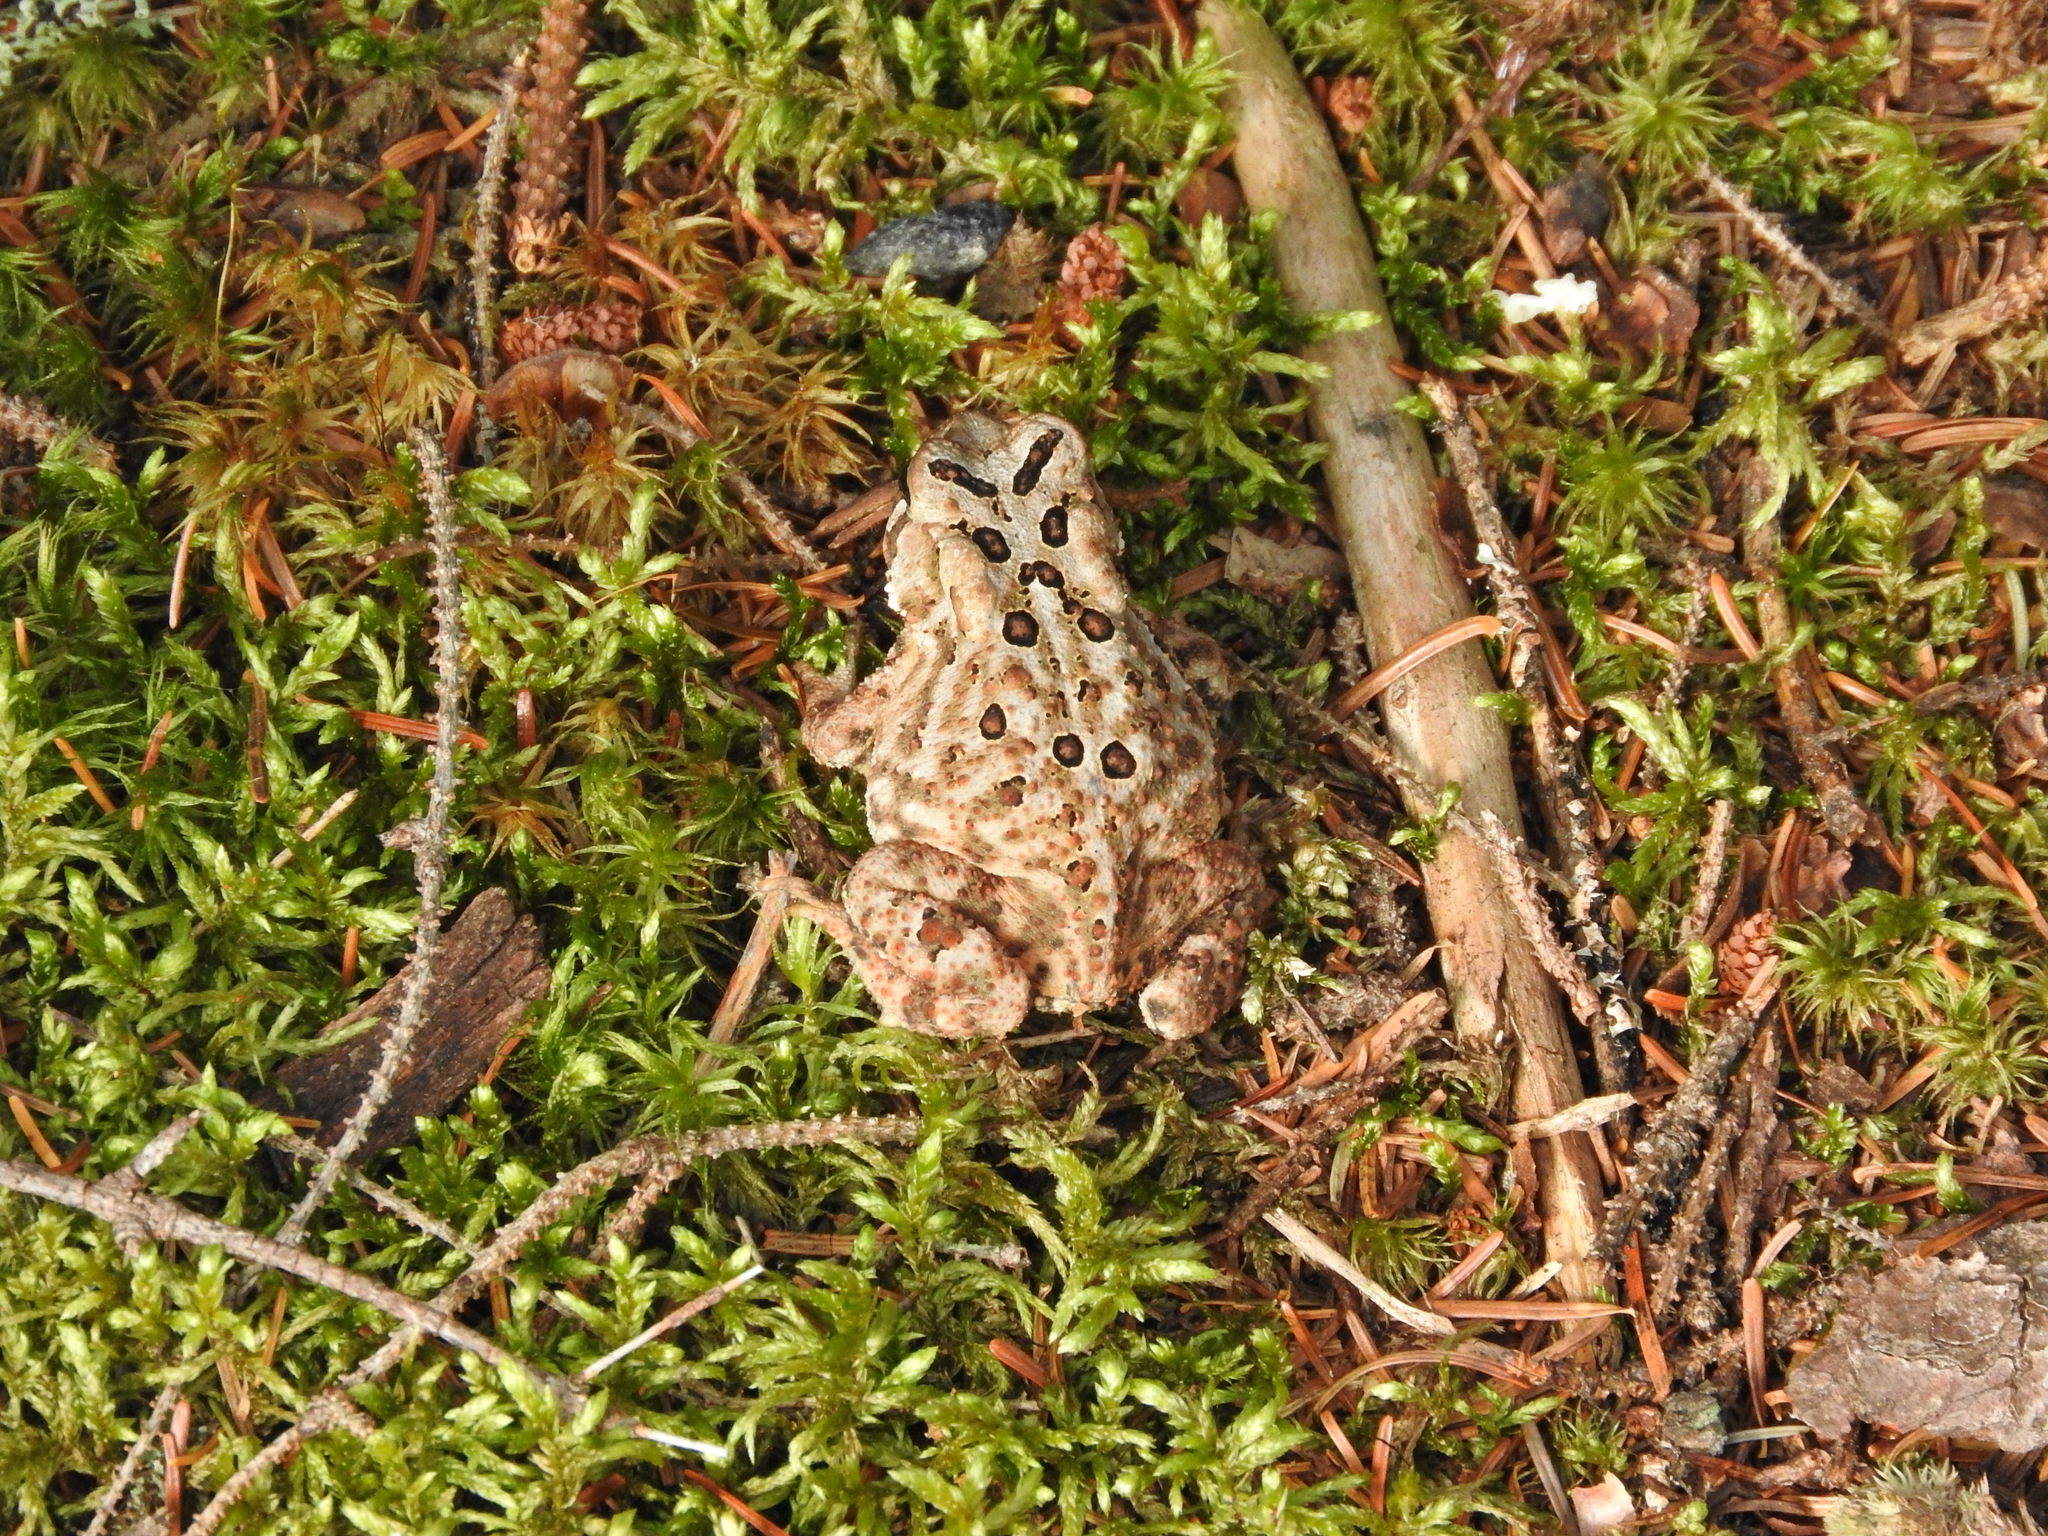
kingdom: Animalia
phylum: Chordata
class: Amphibia
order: Anura
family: Bufonidae
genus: Anaxyrus
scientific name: Anaxyrus americanus
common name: American toad
